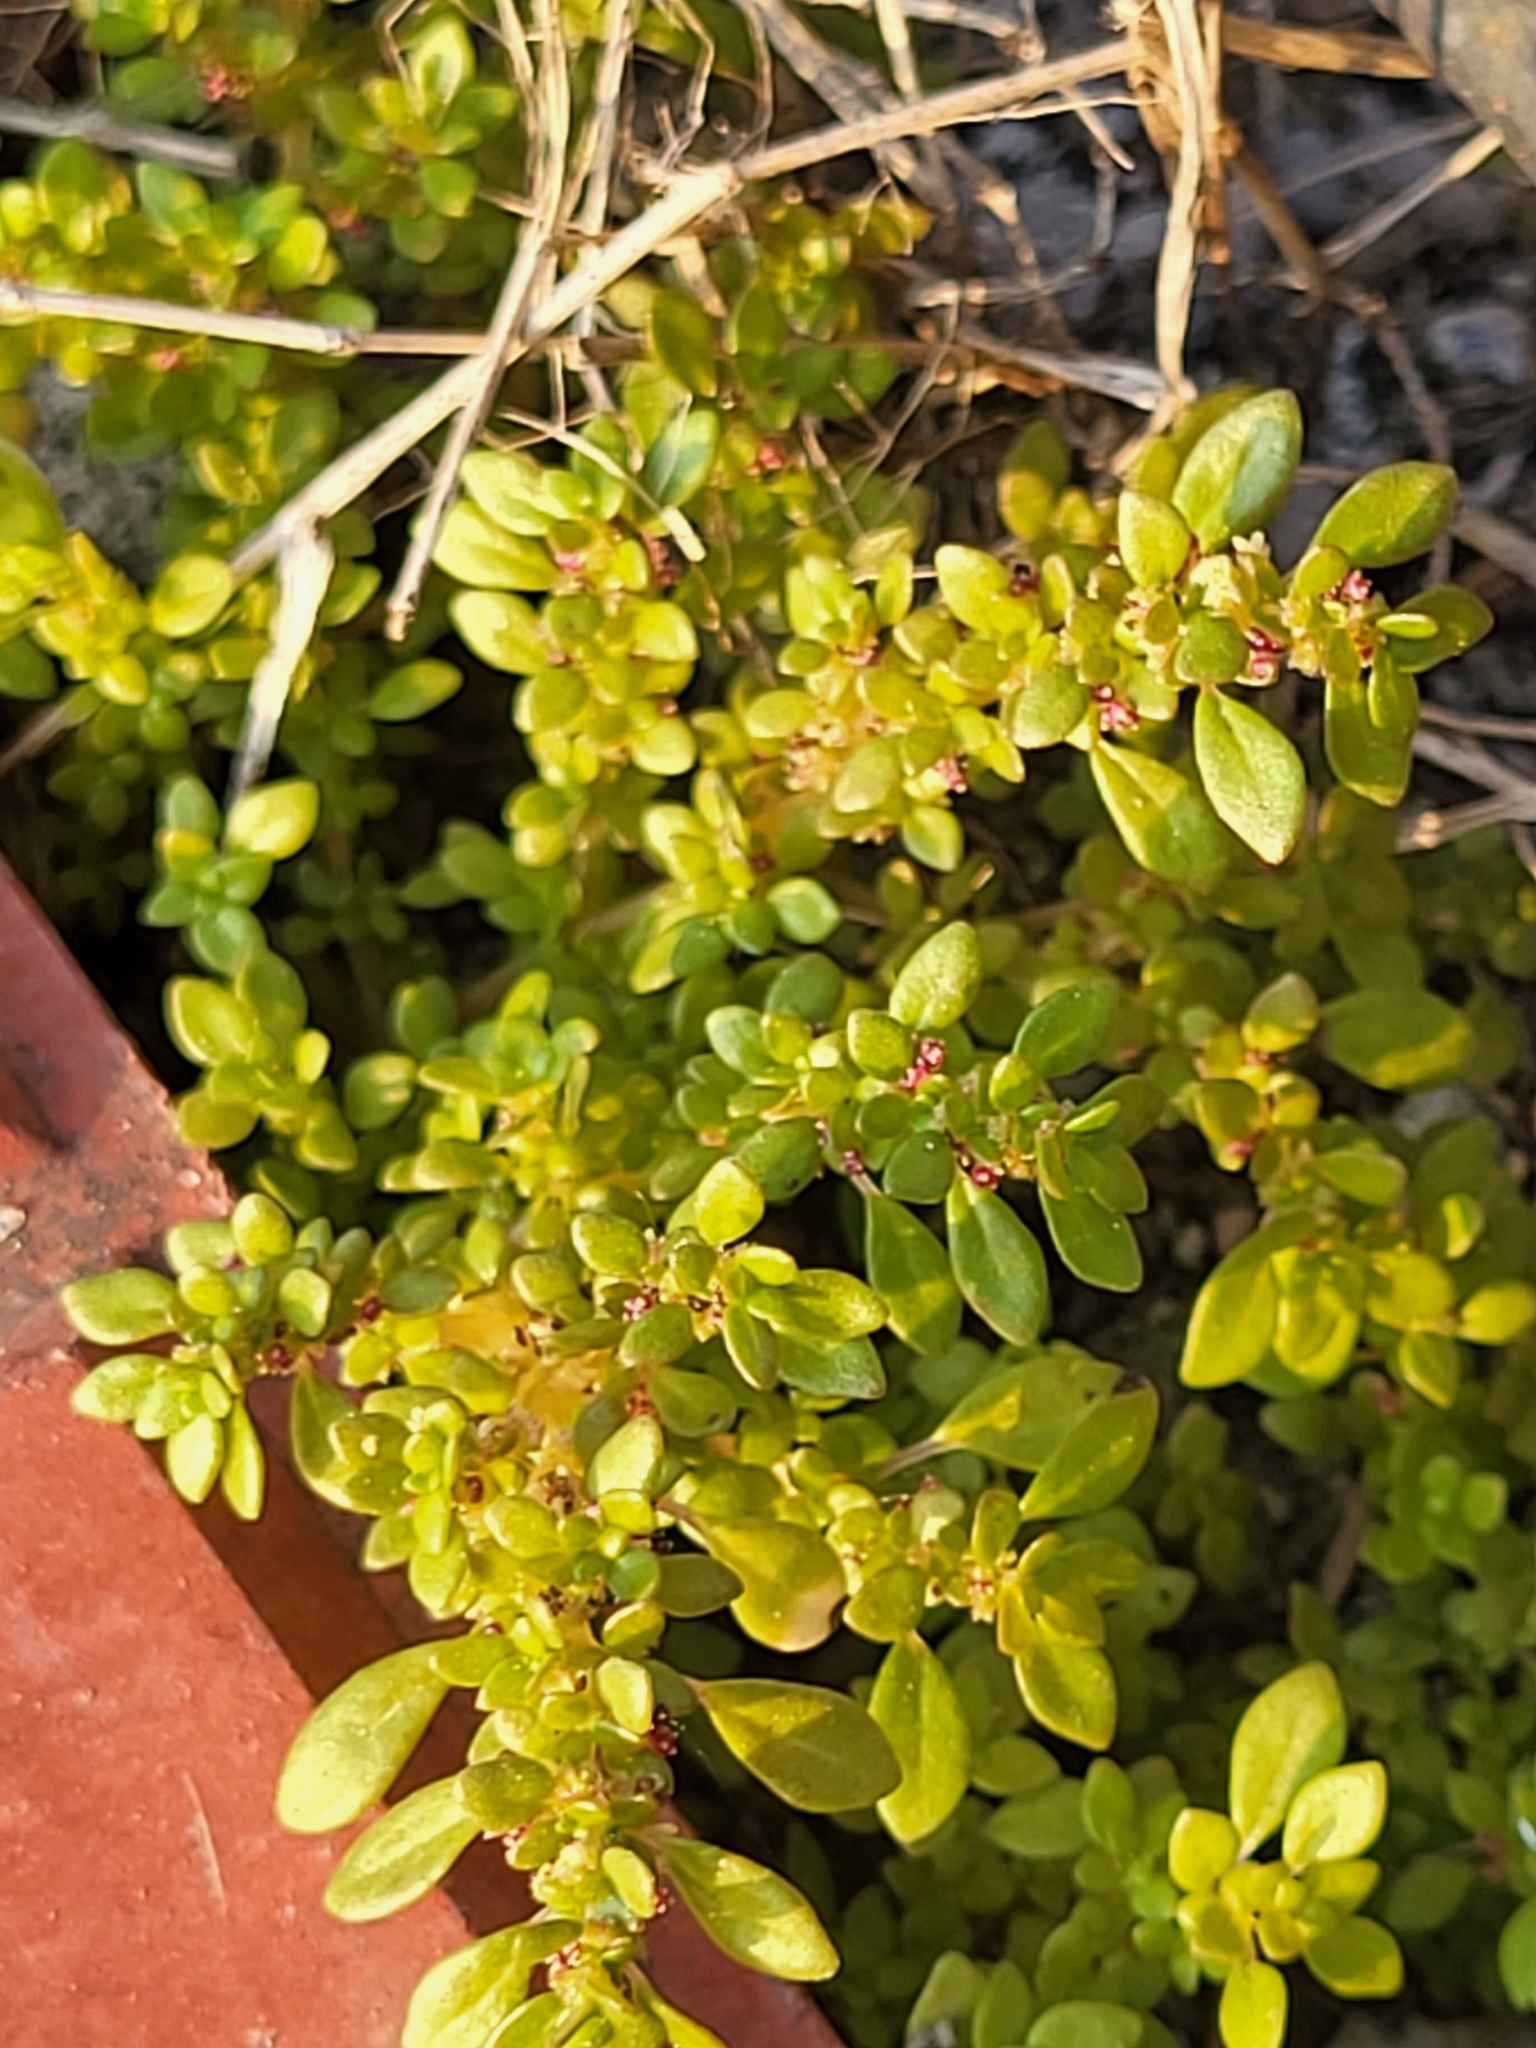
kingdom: Plantae
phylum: Tracheophyta
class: Magnoliopsida
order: Rosales
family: Urticaceae
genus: Pilea
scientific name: Pilea microphylla
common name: Artillery-plant
